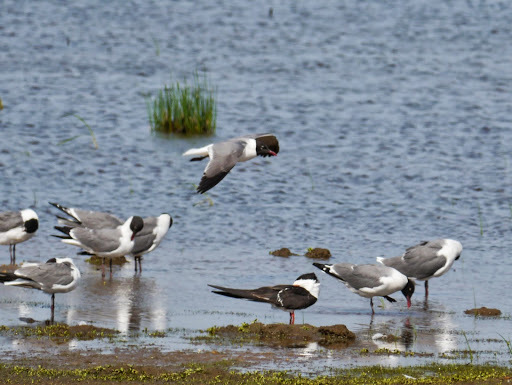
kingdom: Animalia
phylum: Chordata
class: Aves
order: Charadriiformes
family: Laridae
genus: Leucophaeus
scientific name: Leucophaeus atricilla
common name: Laughing gull
